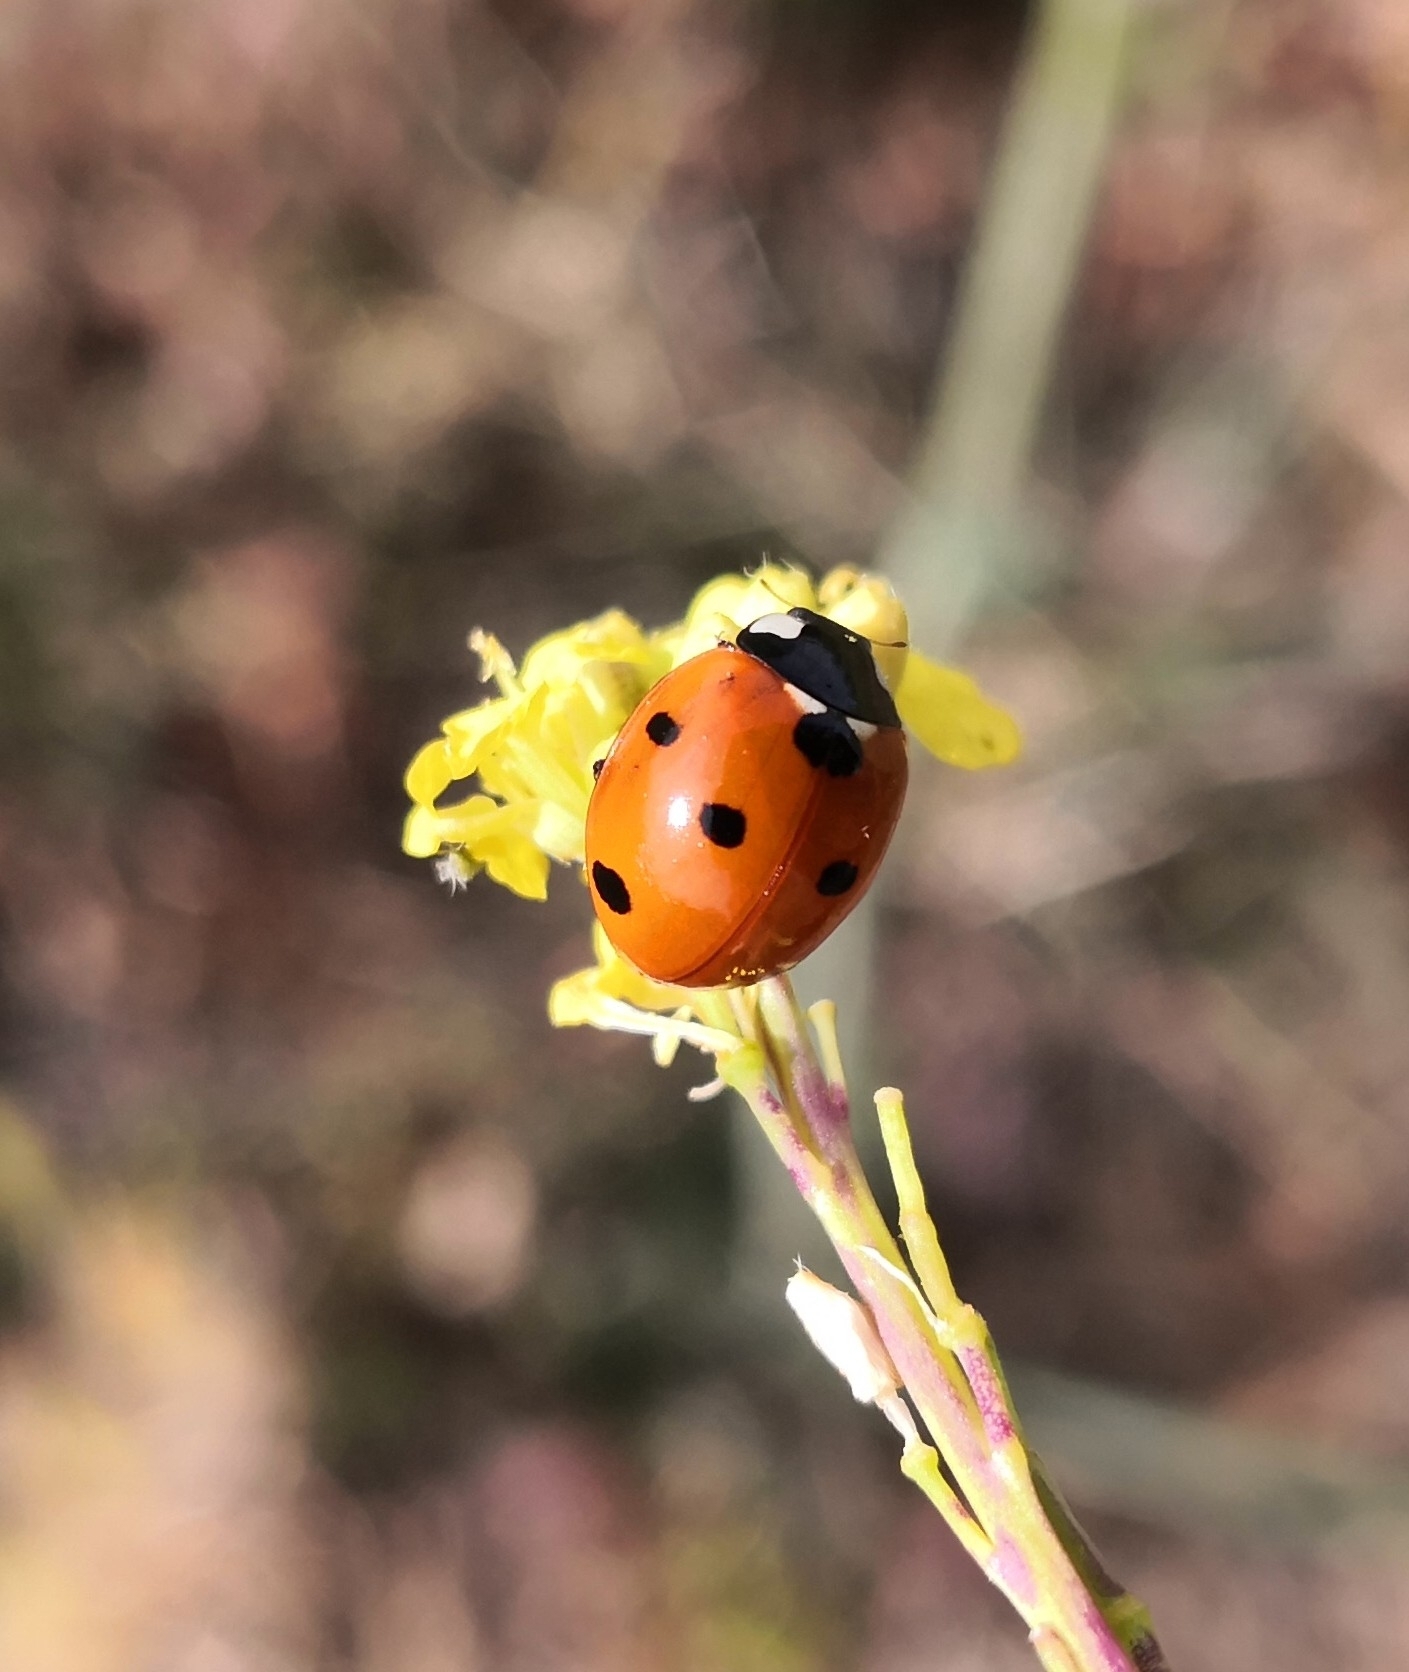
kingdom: Animalia
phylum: Arthropoda
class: Insecta
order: Coleoptera
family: Coccinellidae
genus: Coccinella
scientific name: Coccinella septempunctata
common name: Sevenspotted lady beetle
